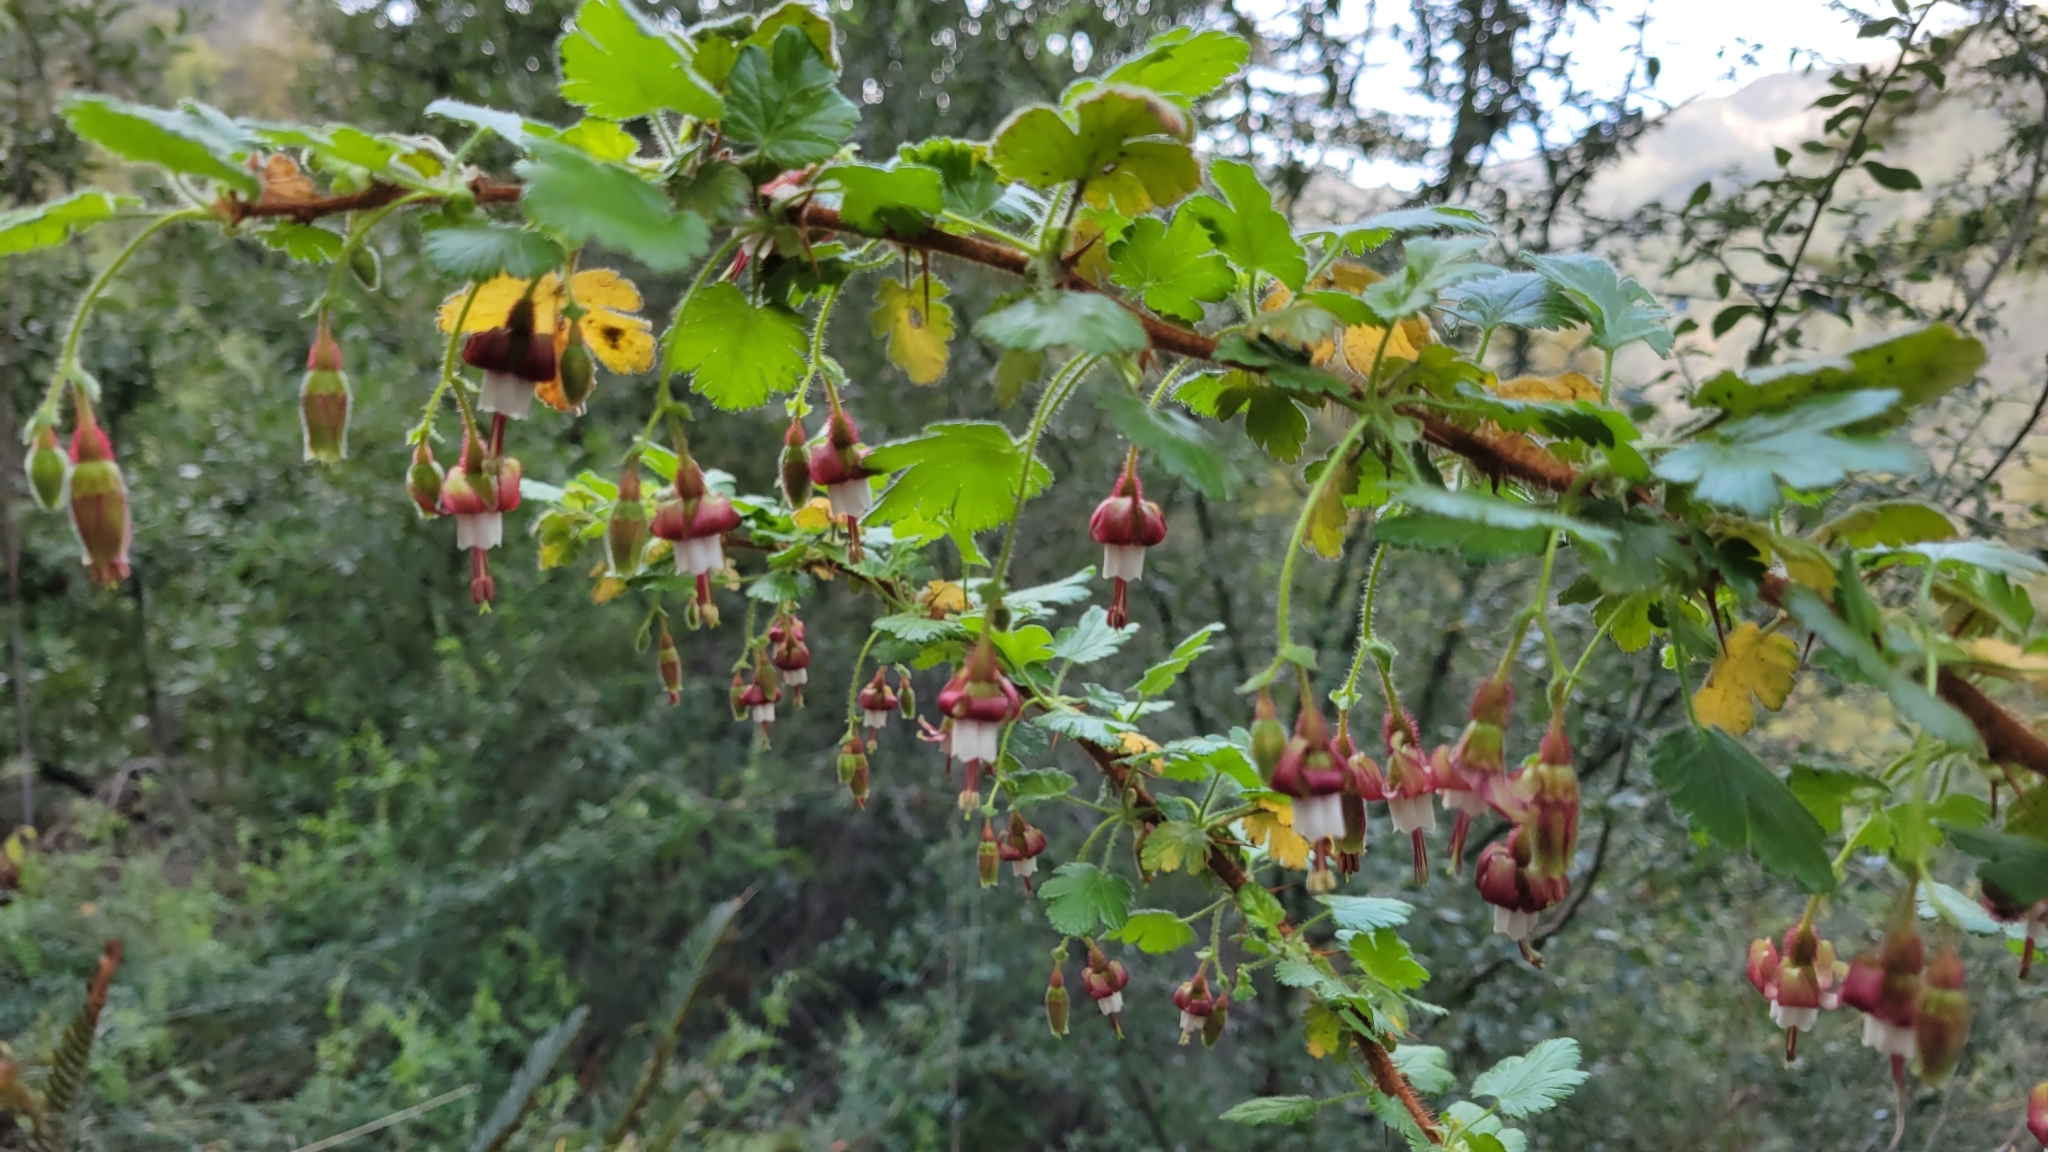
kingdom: Plantae
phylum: Tracheophyta
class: Magnoliopsida
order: Saxifragales
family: Grossulariaceae
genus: Ribes
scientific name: Ribes sericeum
